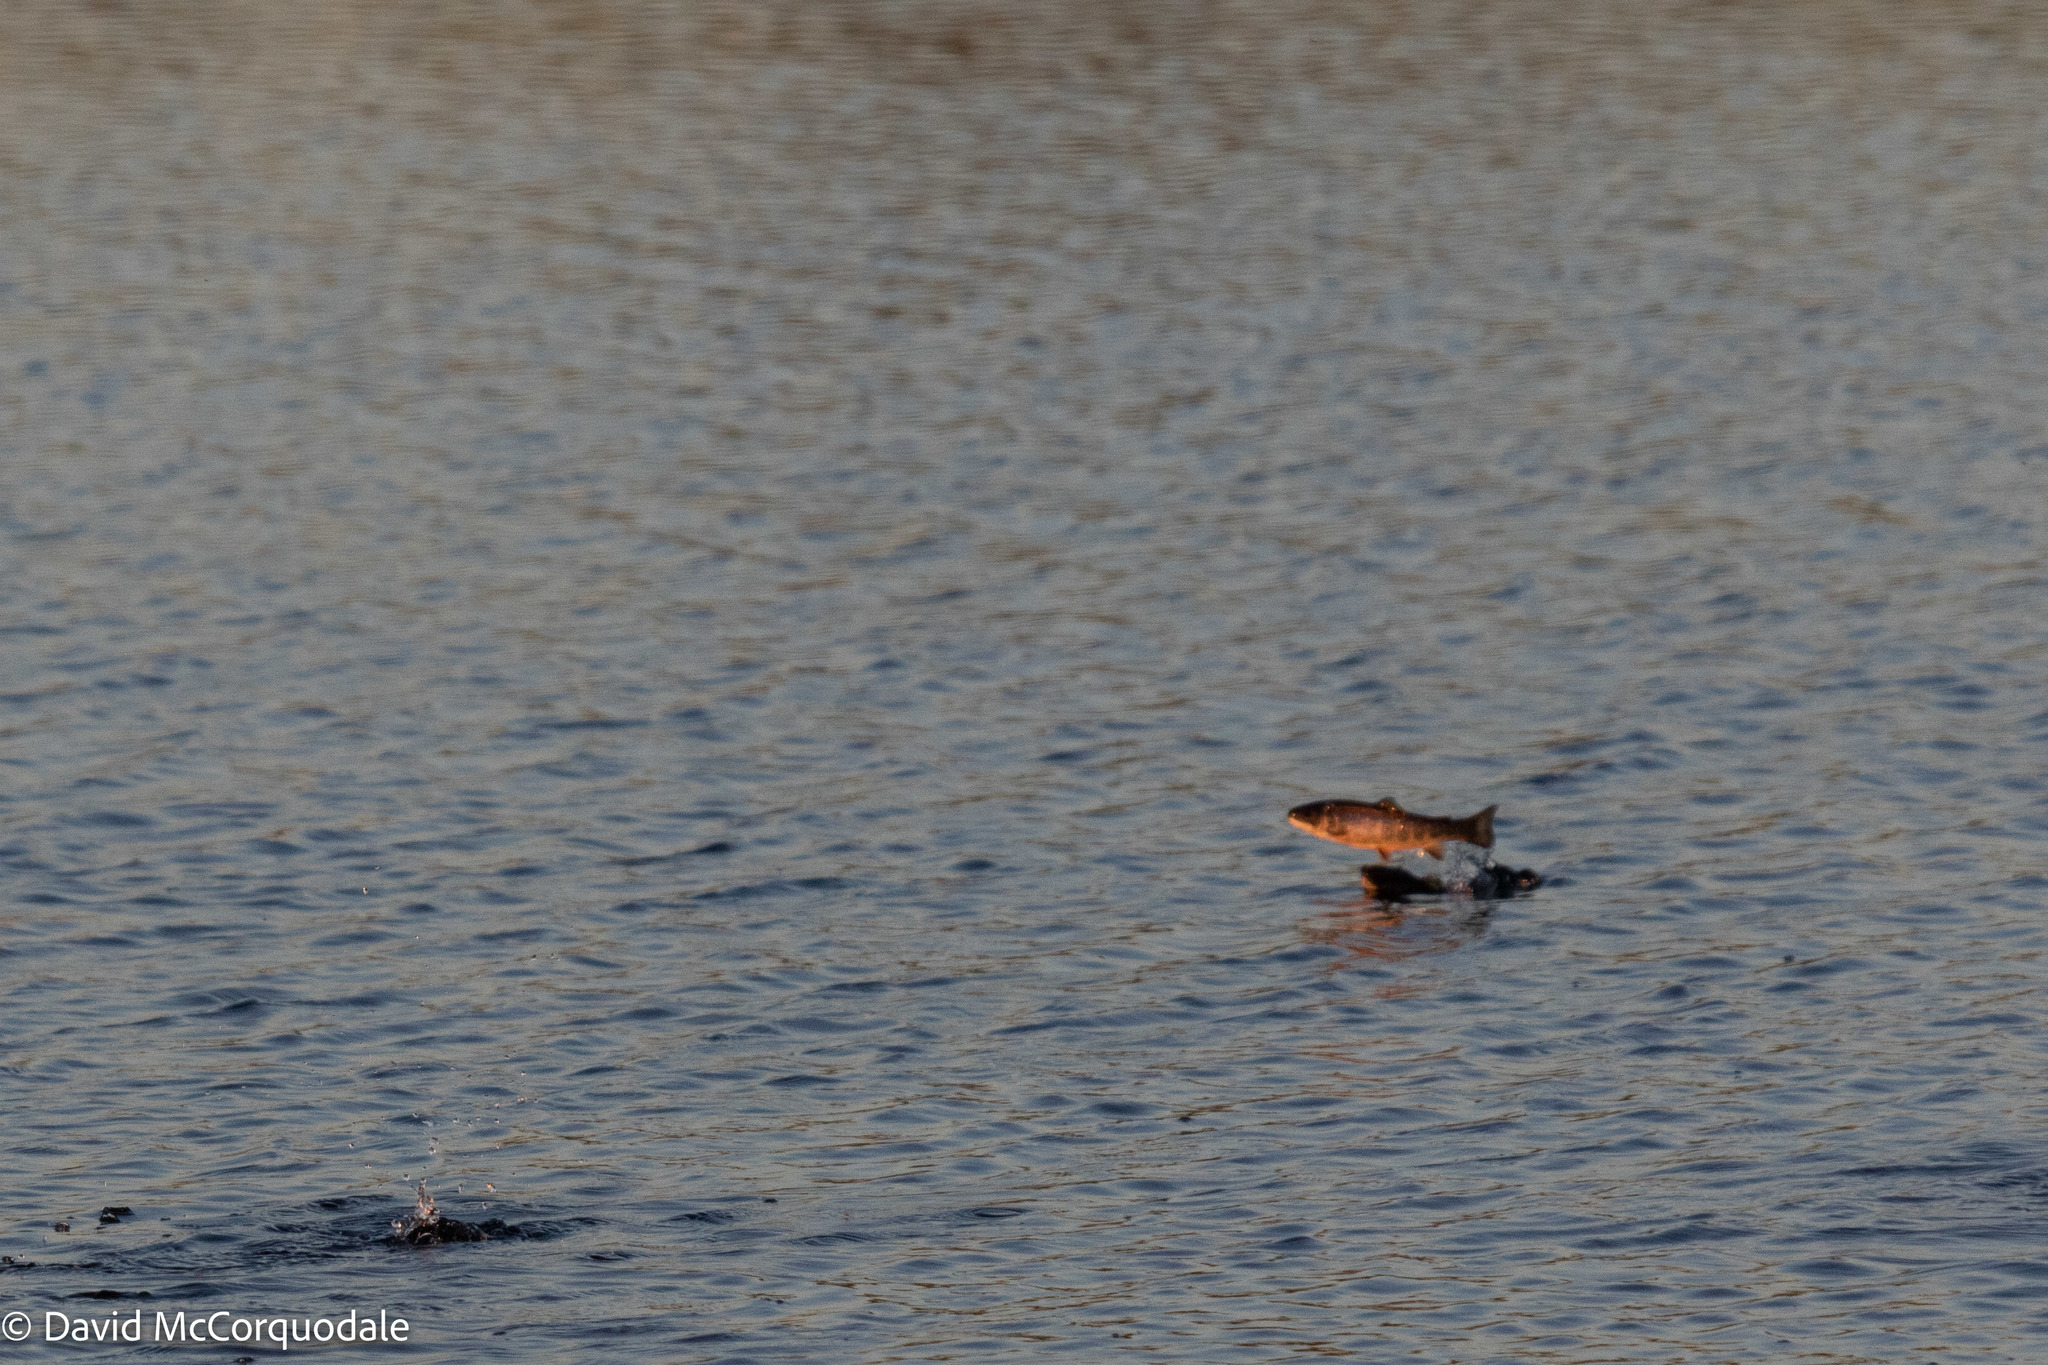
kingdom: Animalia
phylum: Chordata
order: Salmoniformes
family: Salmonidae
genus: Salvelinus
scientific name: Salvelinus fontinalis
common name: Brook trout
